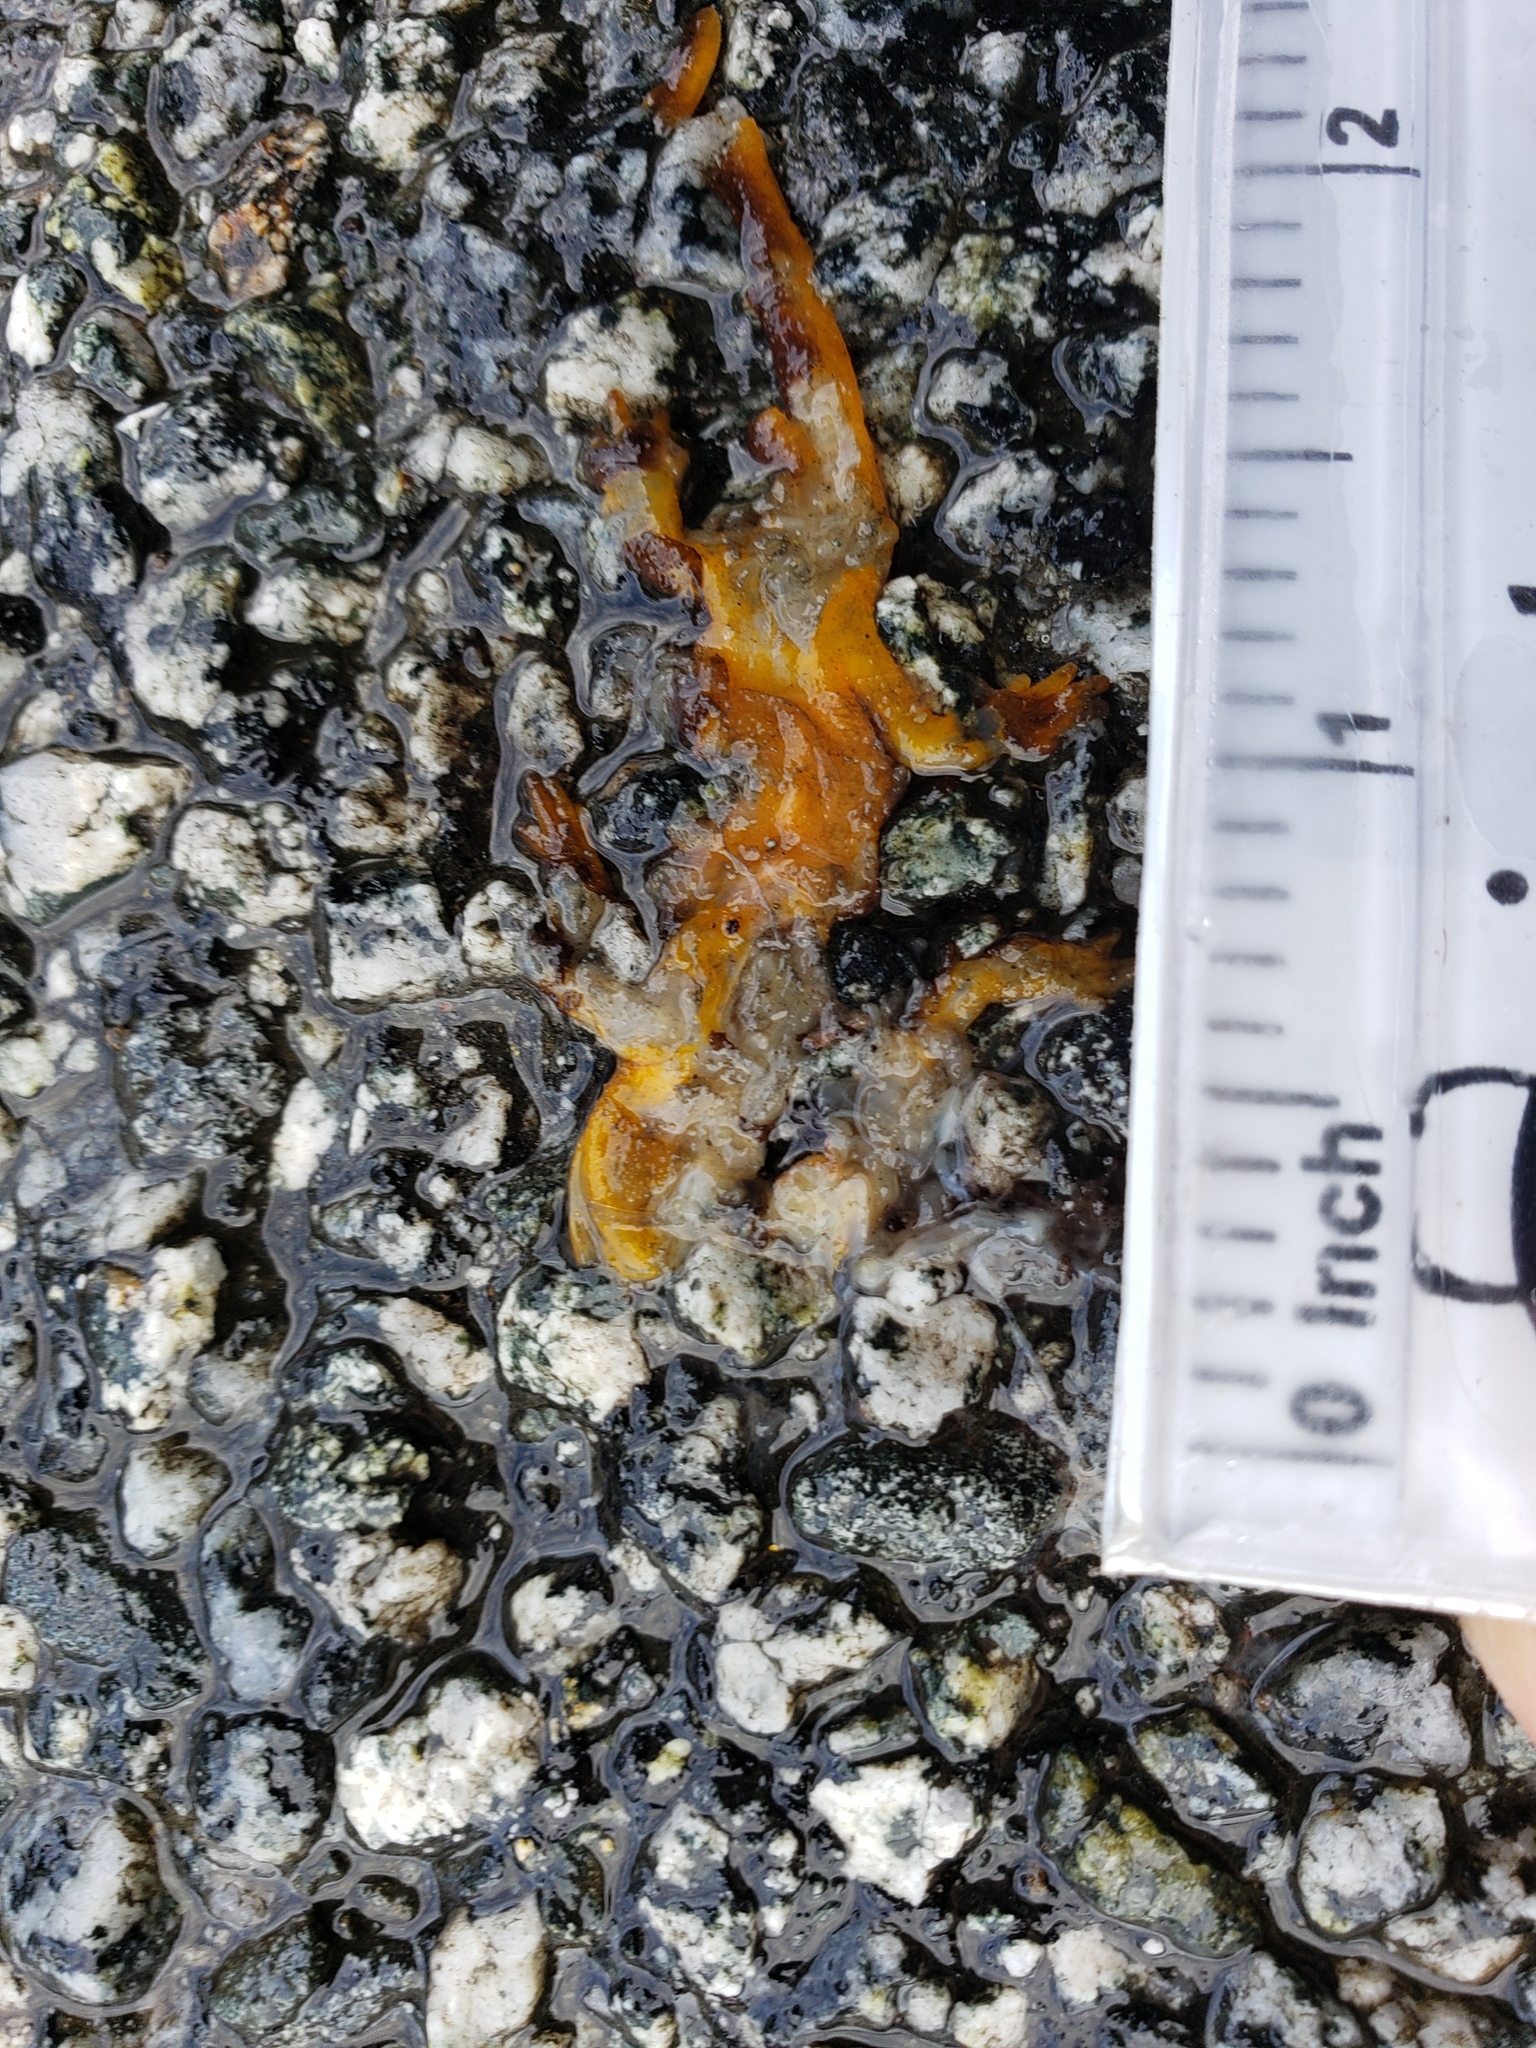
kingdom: Animalia
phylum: Chordata
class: Amphibia
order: Caudata
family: Salamandridae
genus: Taricha
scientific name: Taricha
